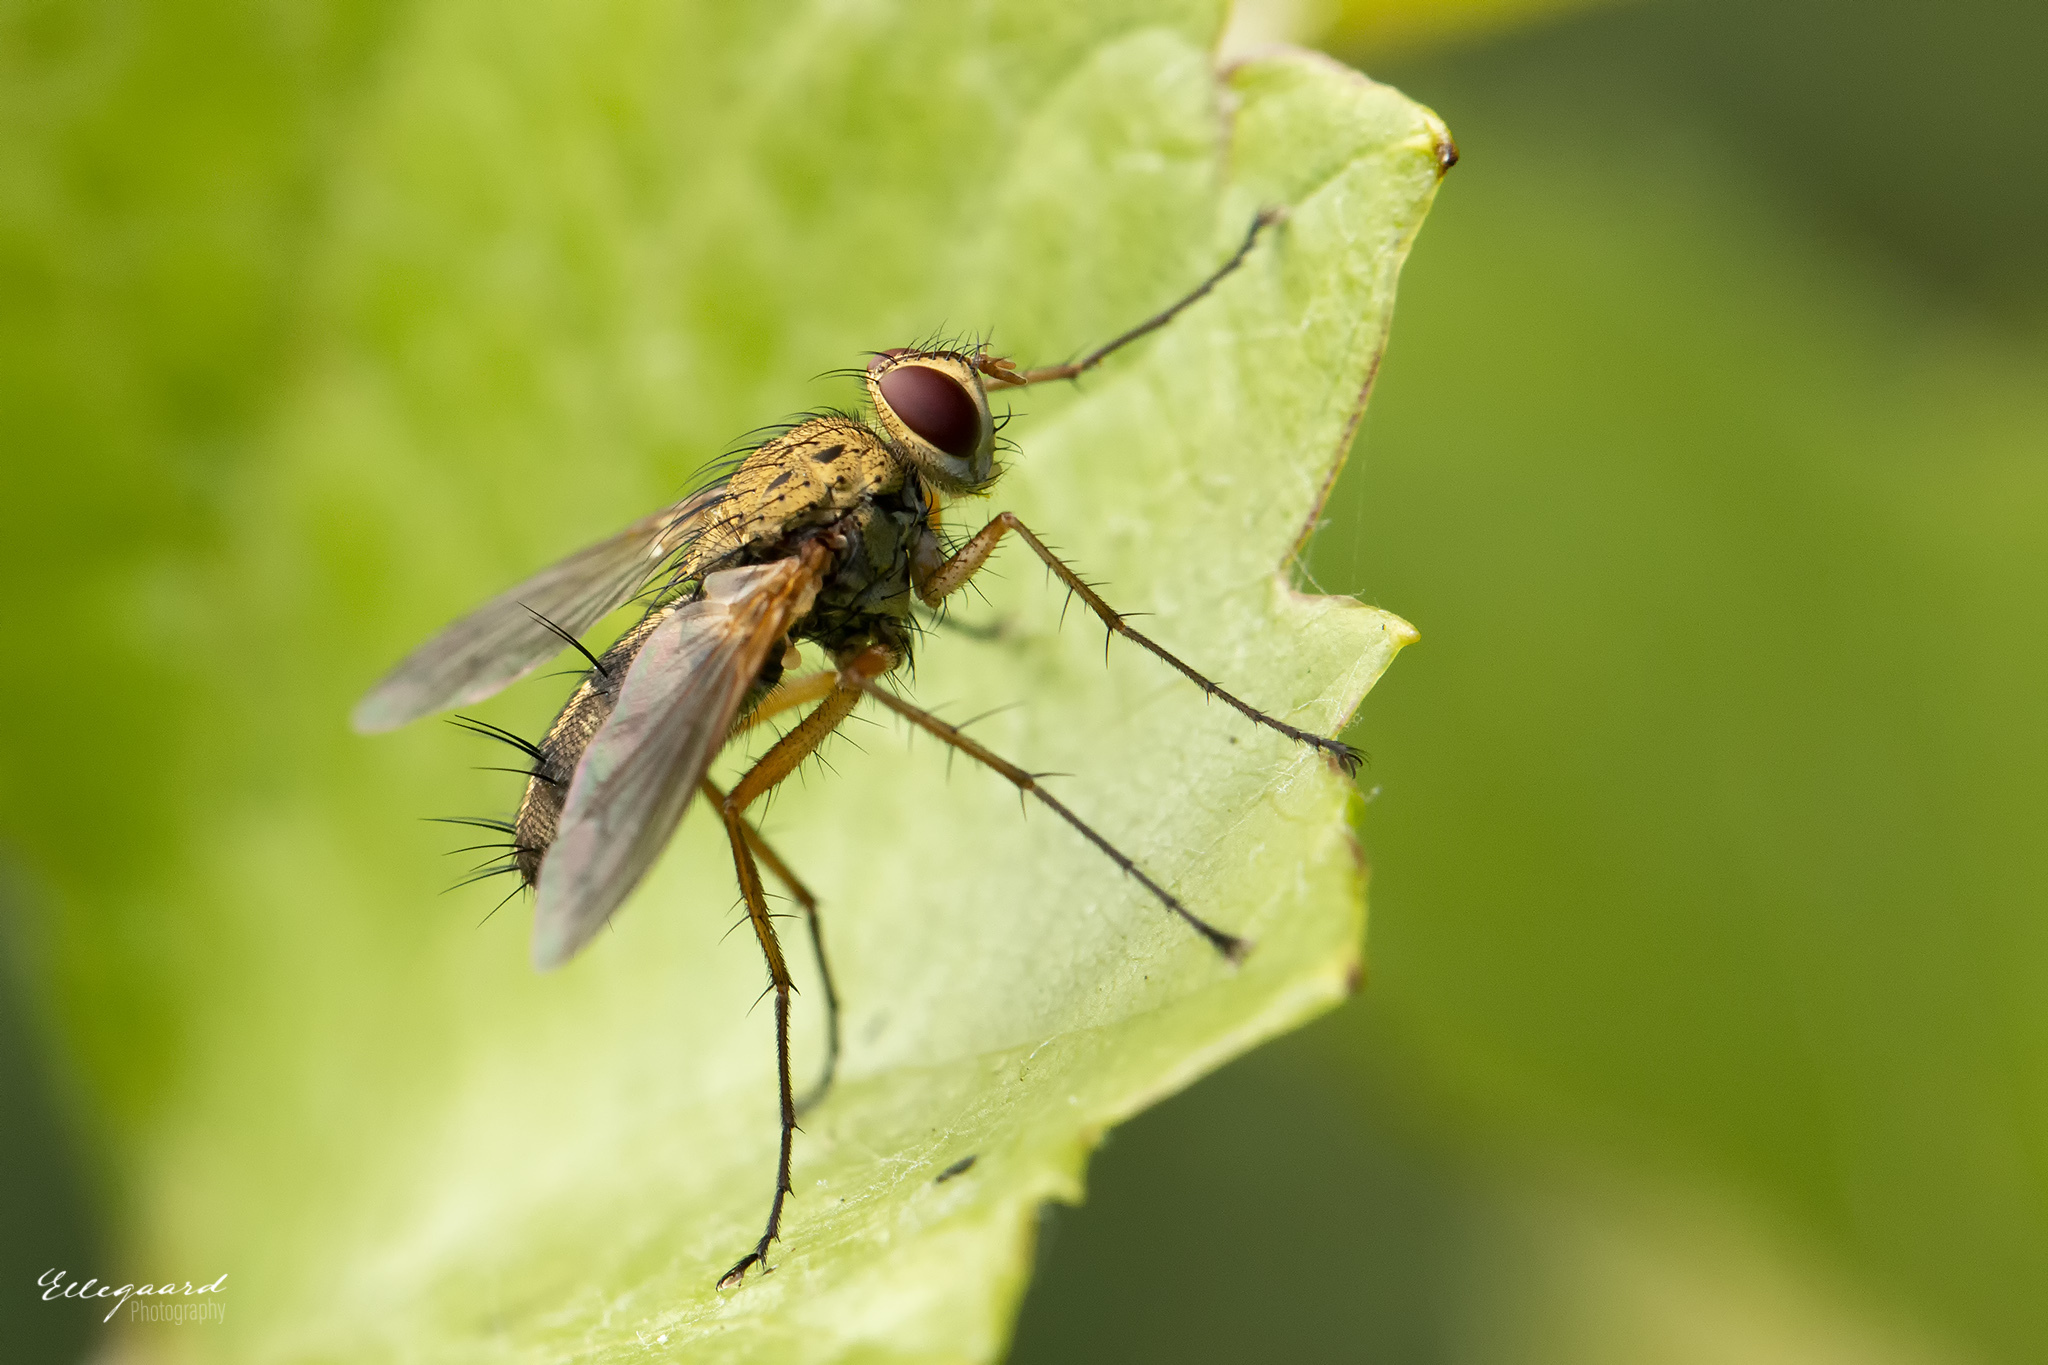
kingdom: Animalia
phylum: Arthropoda
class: Insecta
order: Diptera
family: Tachinidae
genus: Dexiosoma
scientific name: Dexiosoma caninum
